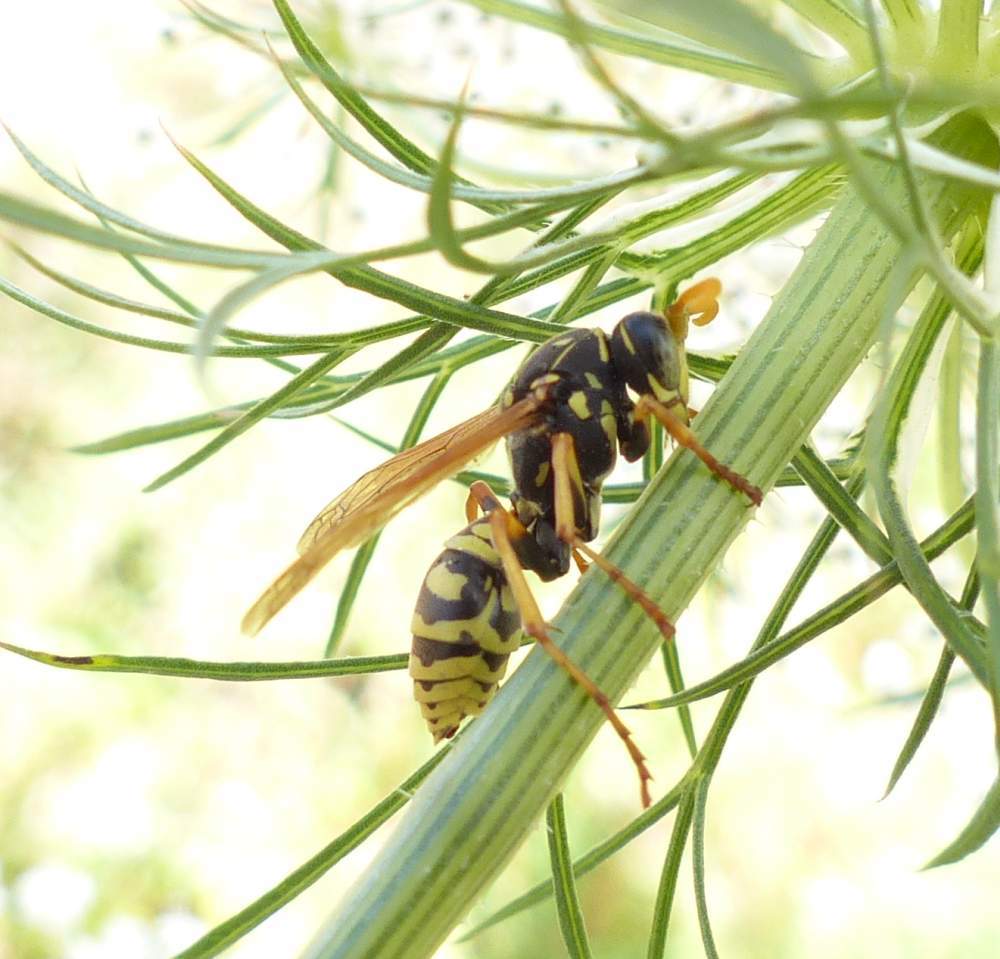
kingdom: Animalia
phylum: Arthropoda
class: Insecta
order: Hymenoptera
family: Eumenidae
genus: Polistes
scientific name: Polistes dominula
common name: Paper wasp
